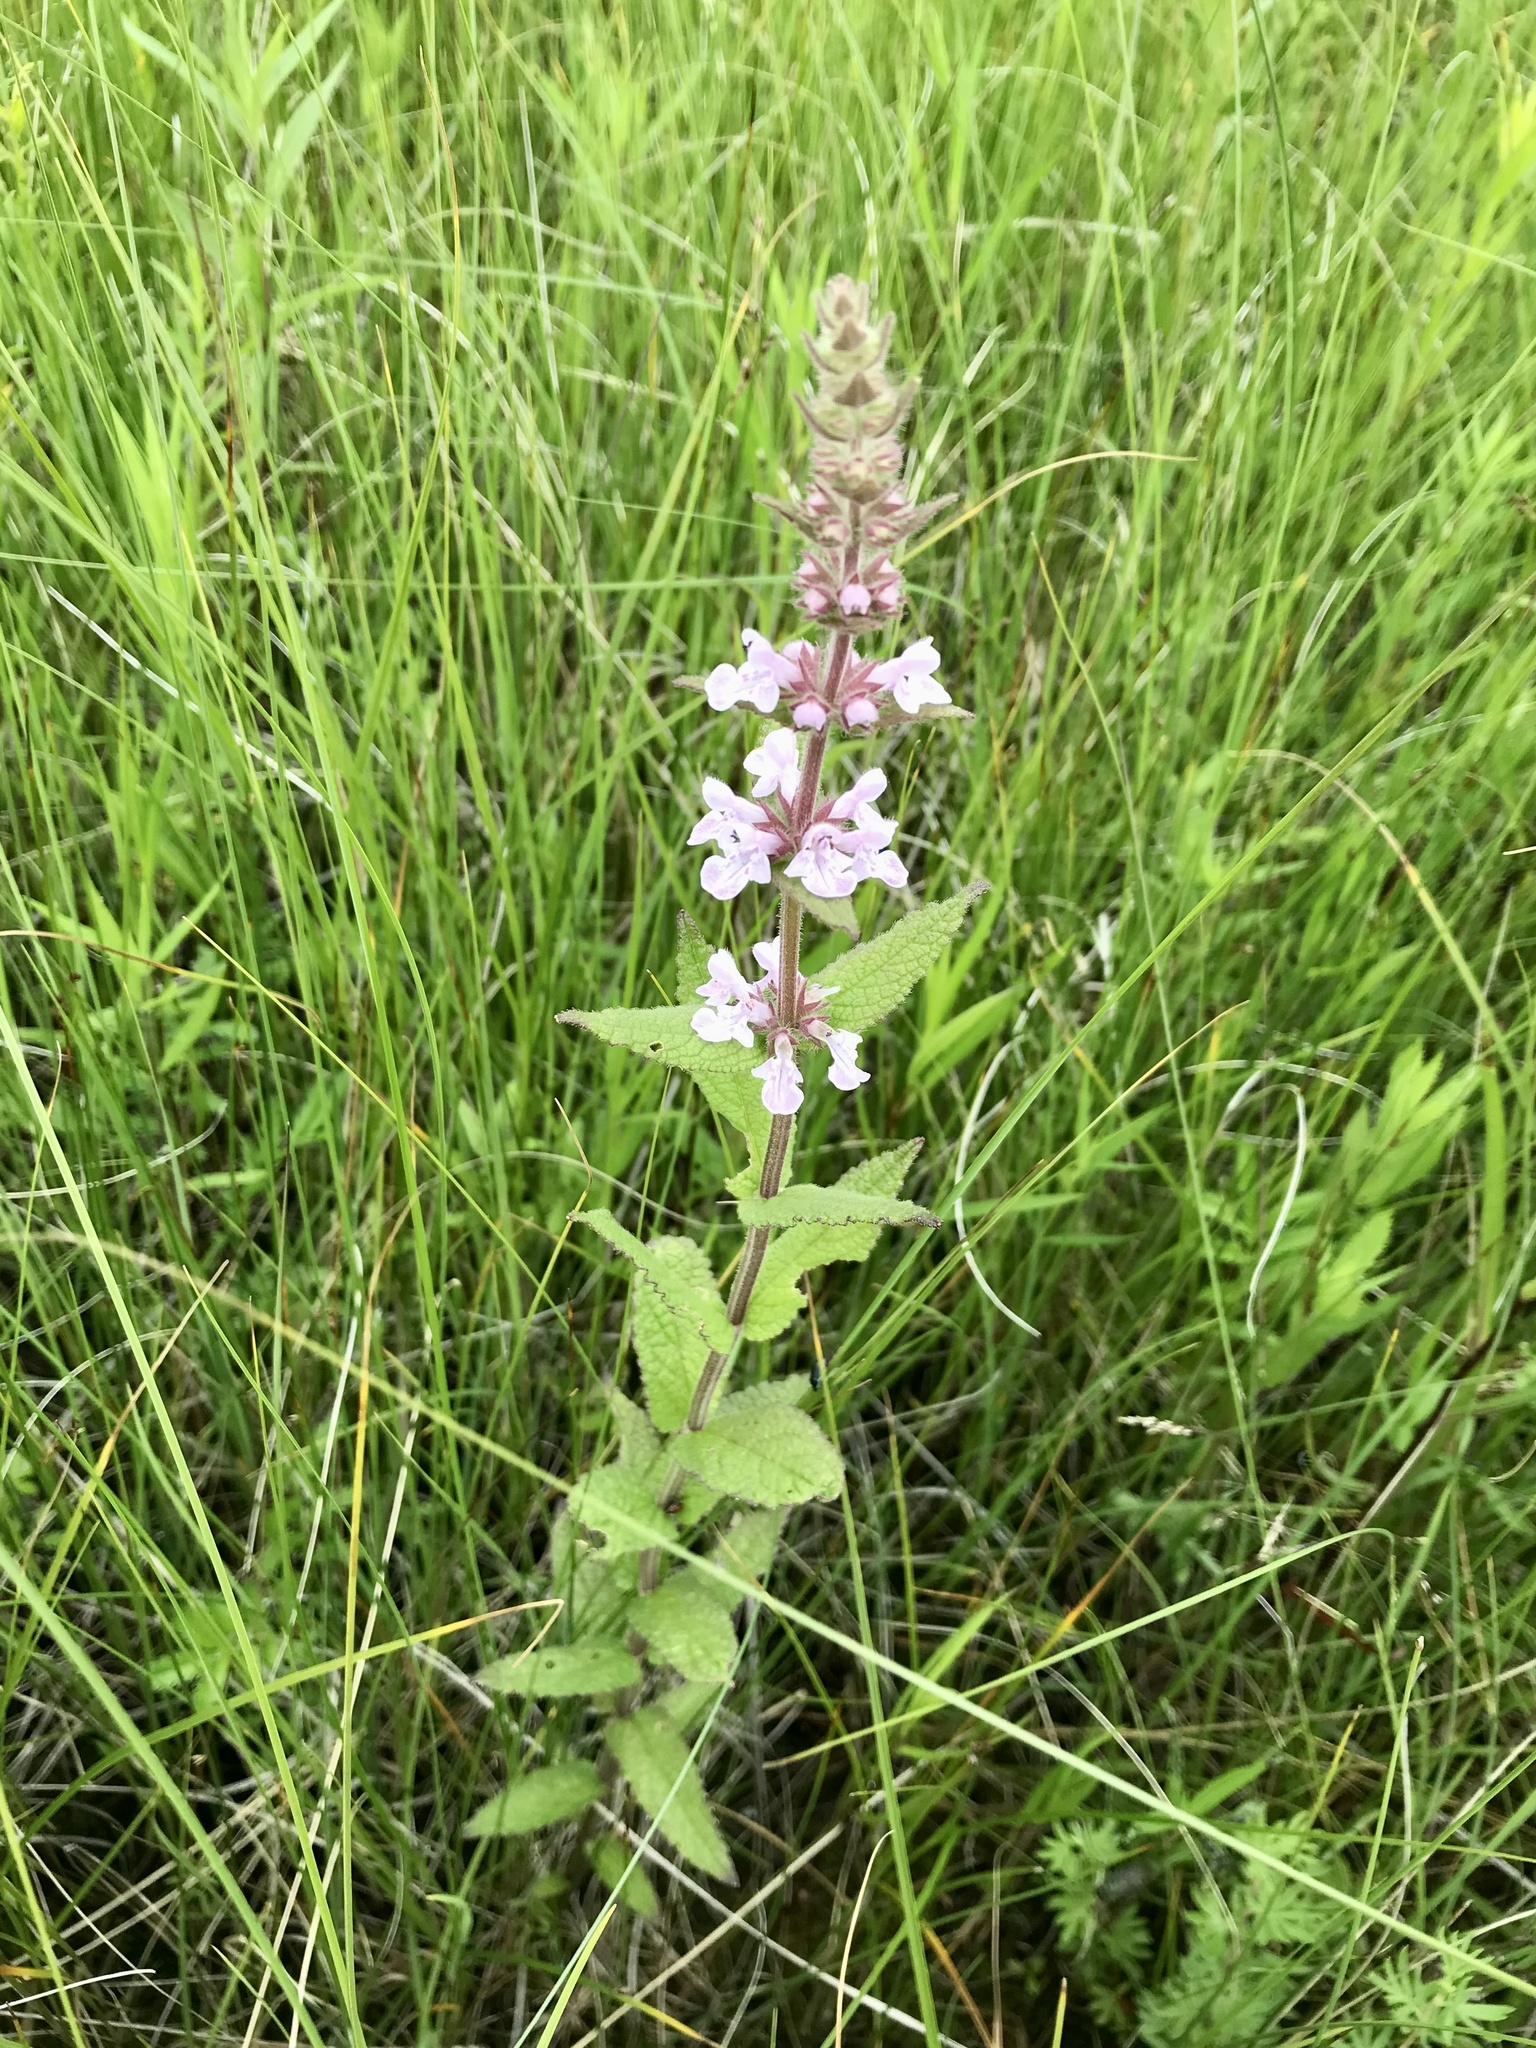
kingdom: Plantae
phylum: Tracheophyta
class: Magnoliopsida
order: Lamiales
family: Lamiaceae
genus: Stachys
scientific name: Stachys pilosa
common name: Hairy hedge-nettle
